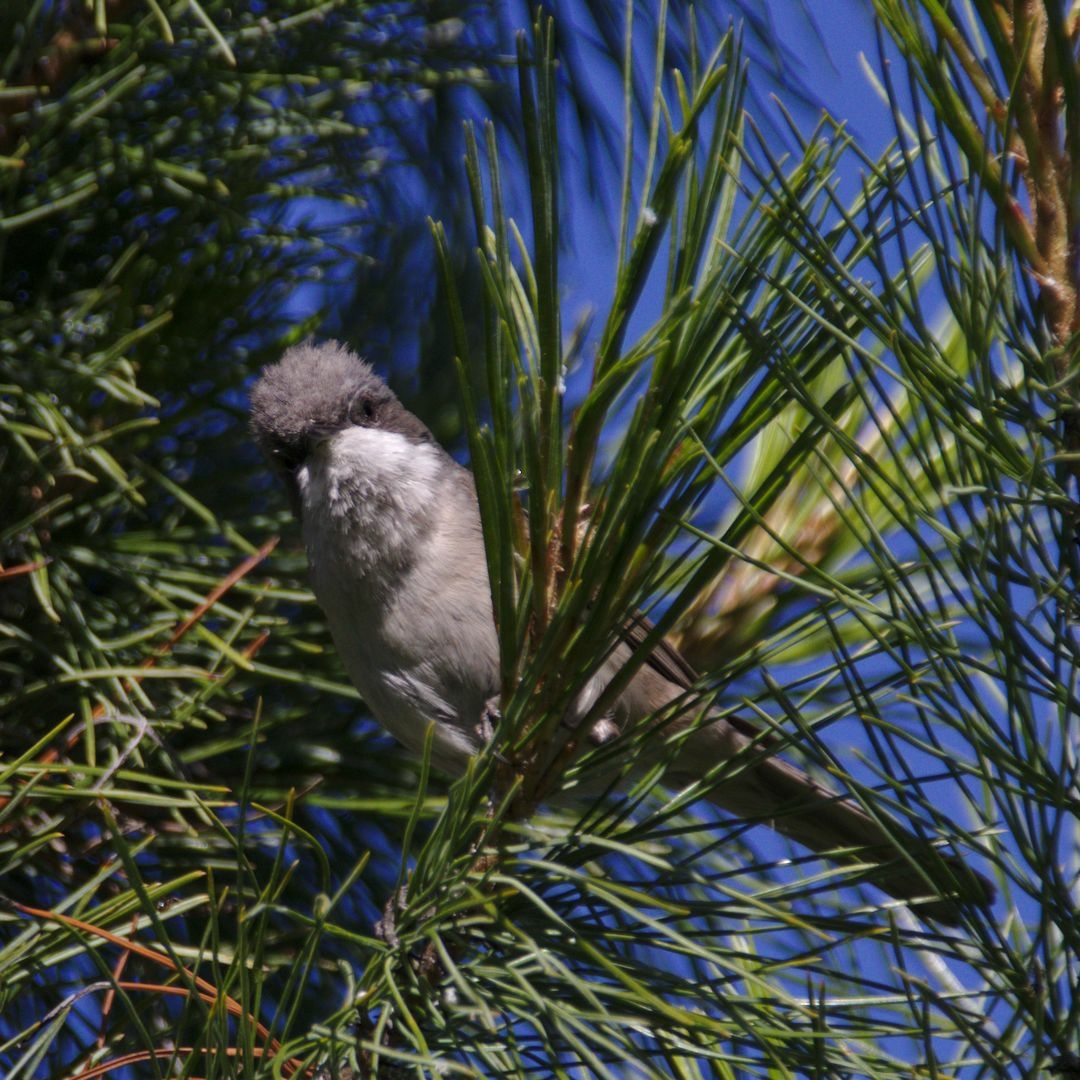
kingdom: Animalia
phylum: Chordata
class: Aves
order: Passeriformes
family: Sylviidae
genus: Sylvia
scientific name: Sylvia curruca
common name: Lesser whitethroat
